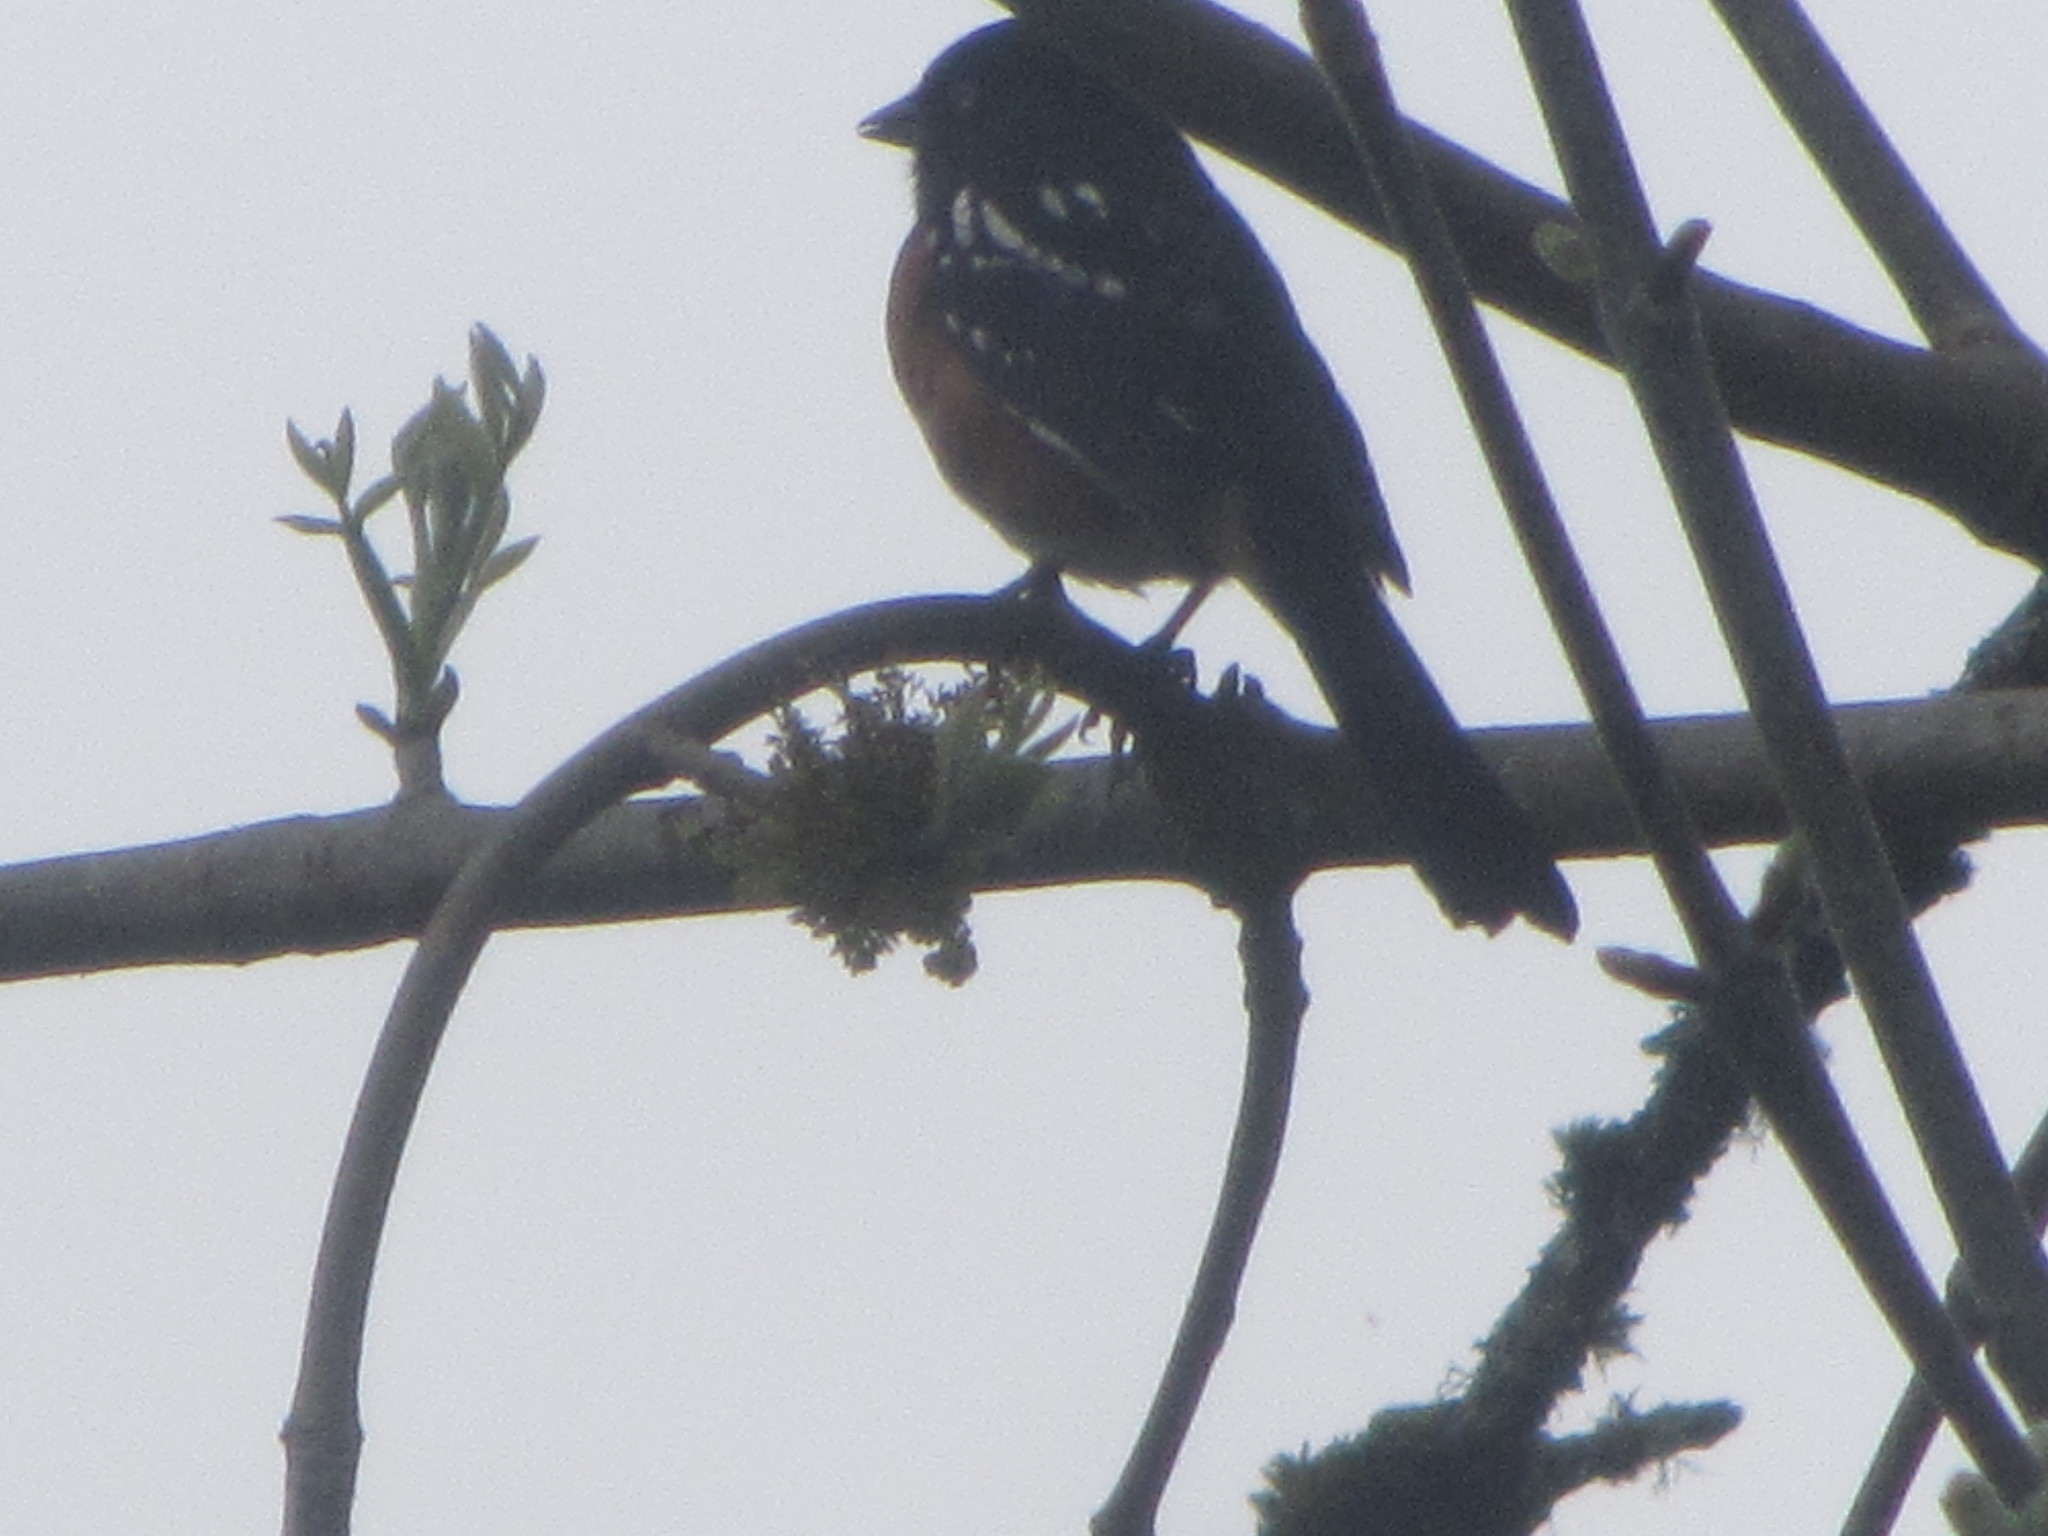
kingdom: Animalia
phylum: Chordata
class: Aves
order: Passeriformes
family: Passerellidae
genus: Pipilo
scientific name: Pipilo maculatus
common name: Spotted towhee
